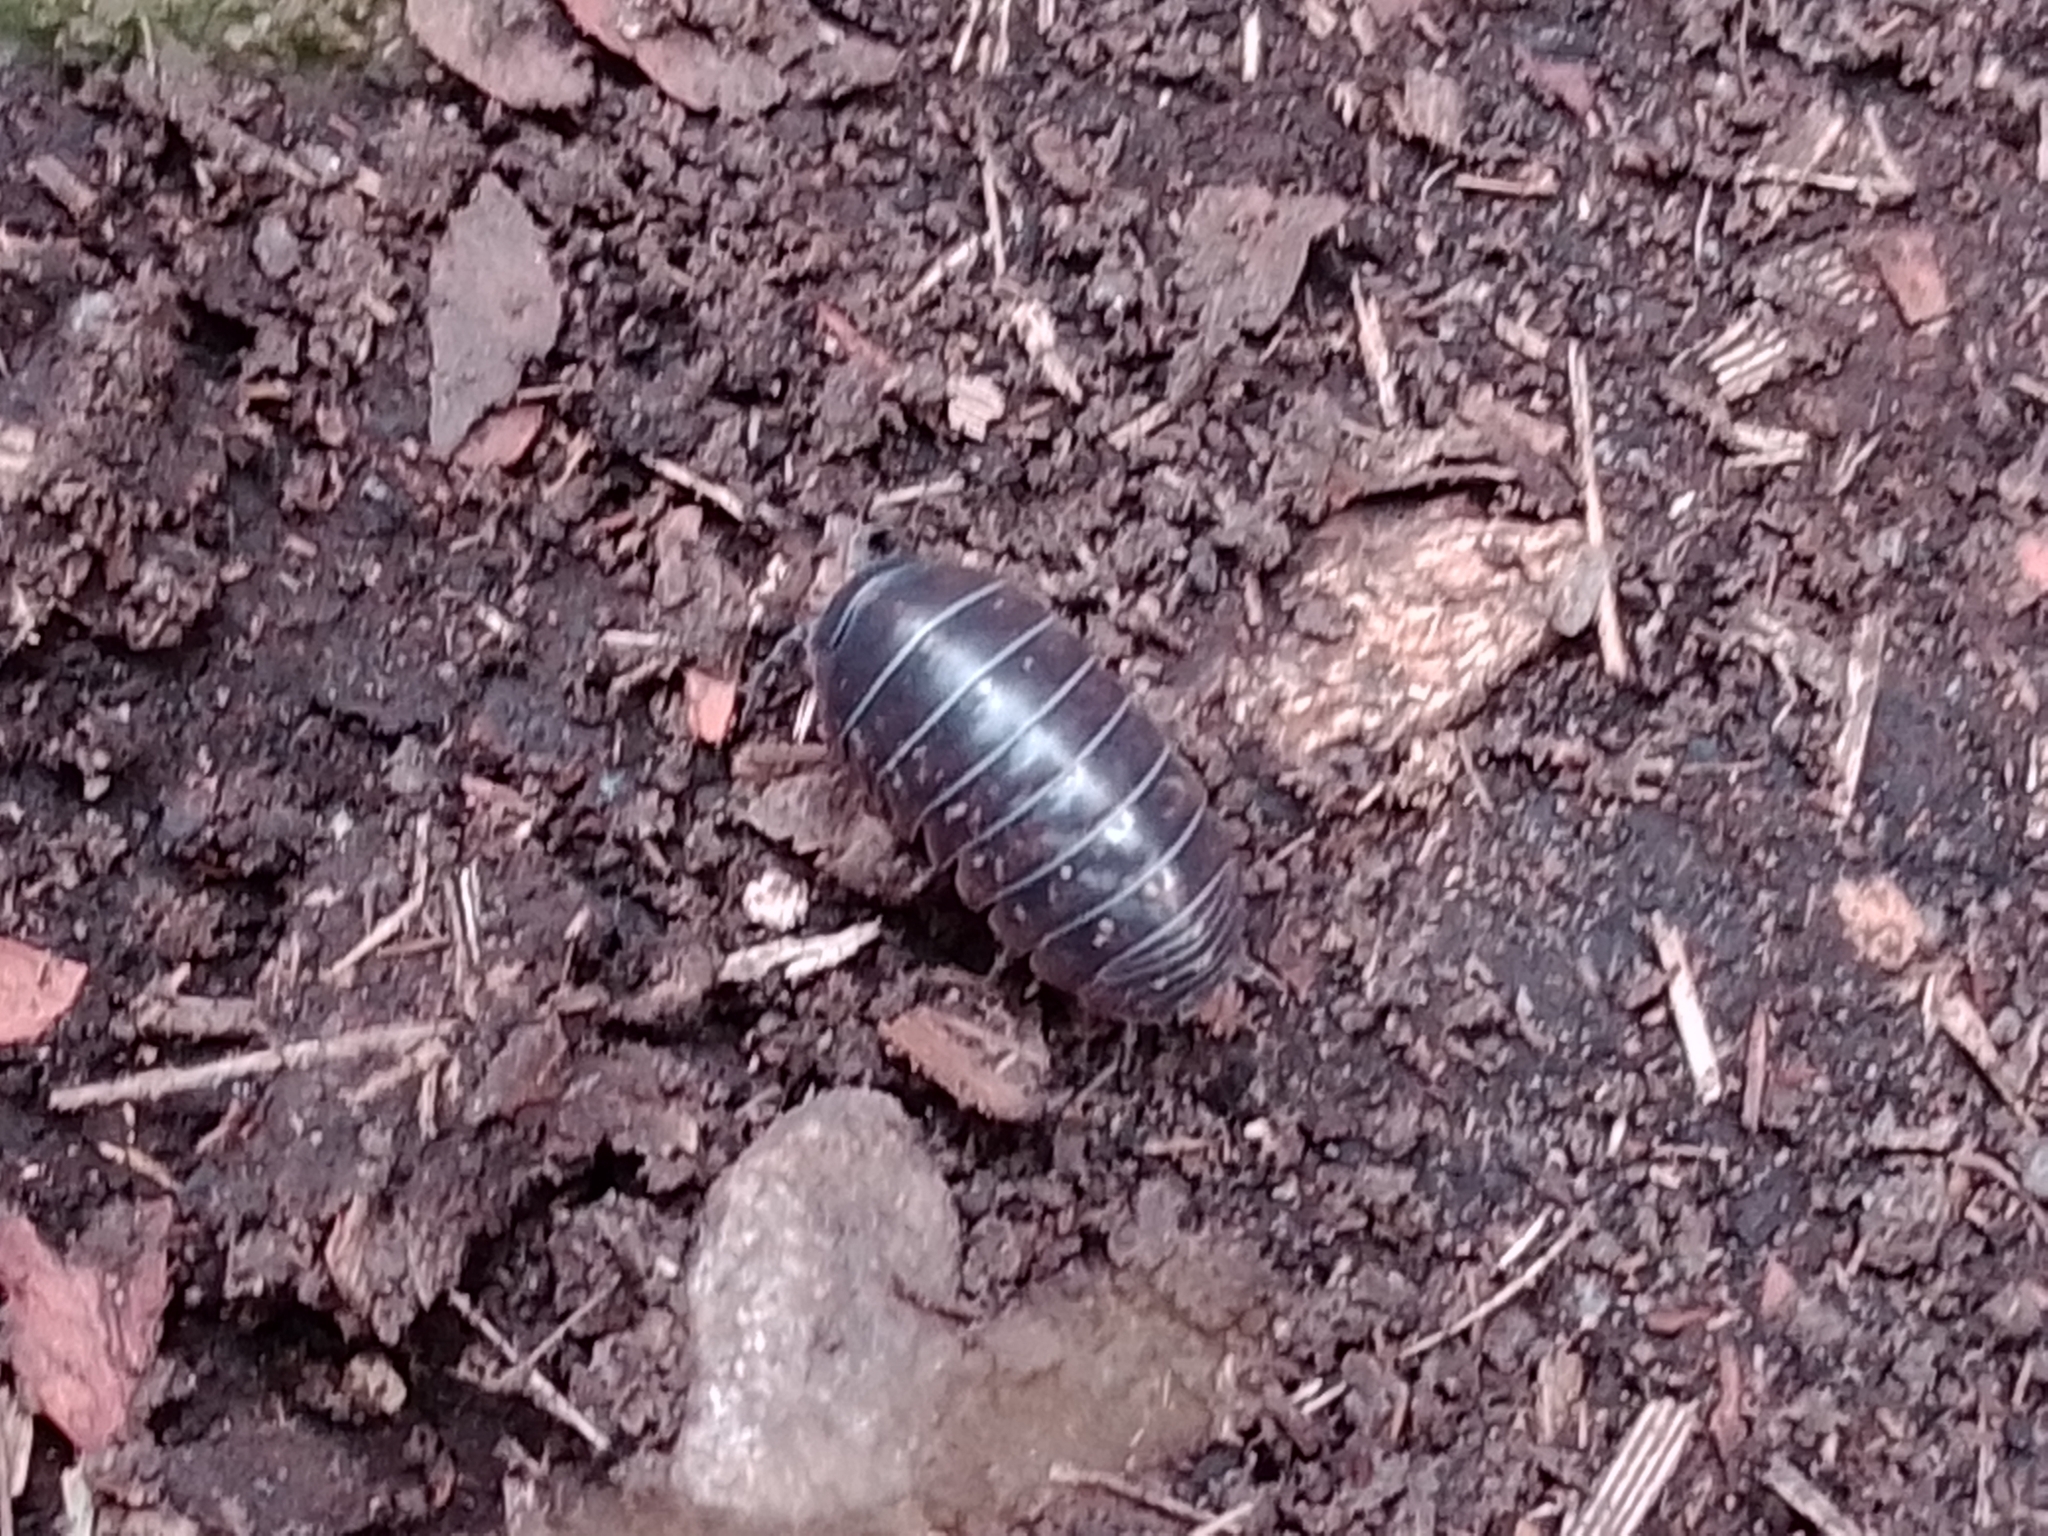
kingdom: Animalia
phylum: Arthropoda
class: Malacostraca
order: Isopoda
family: Armadillidiidae
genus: Armadillidium
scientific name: Armadillidium vulgare
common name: Common pill woodlouse
